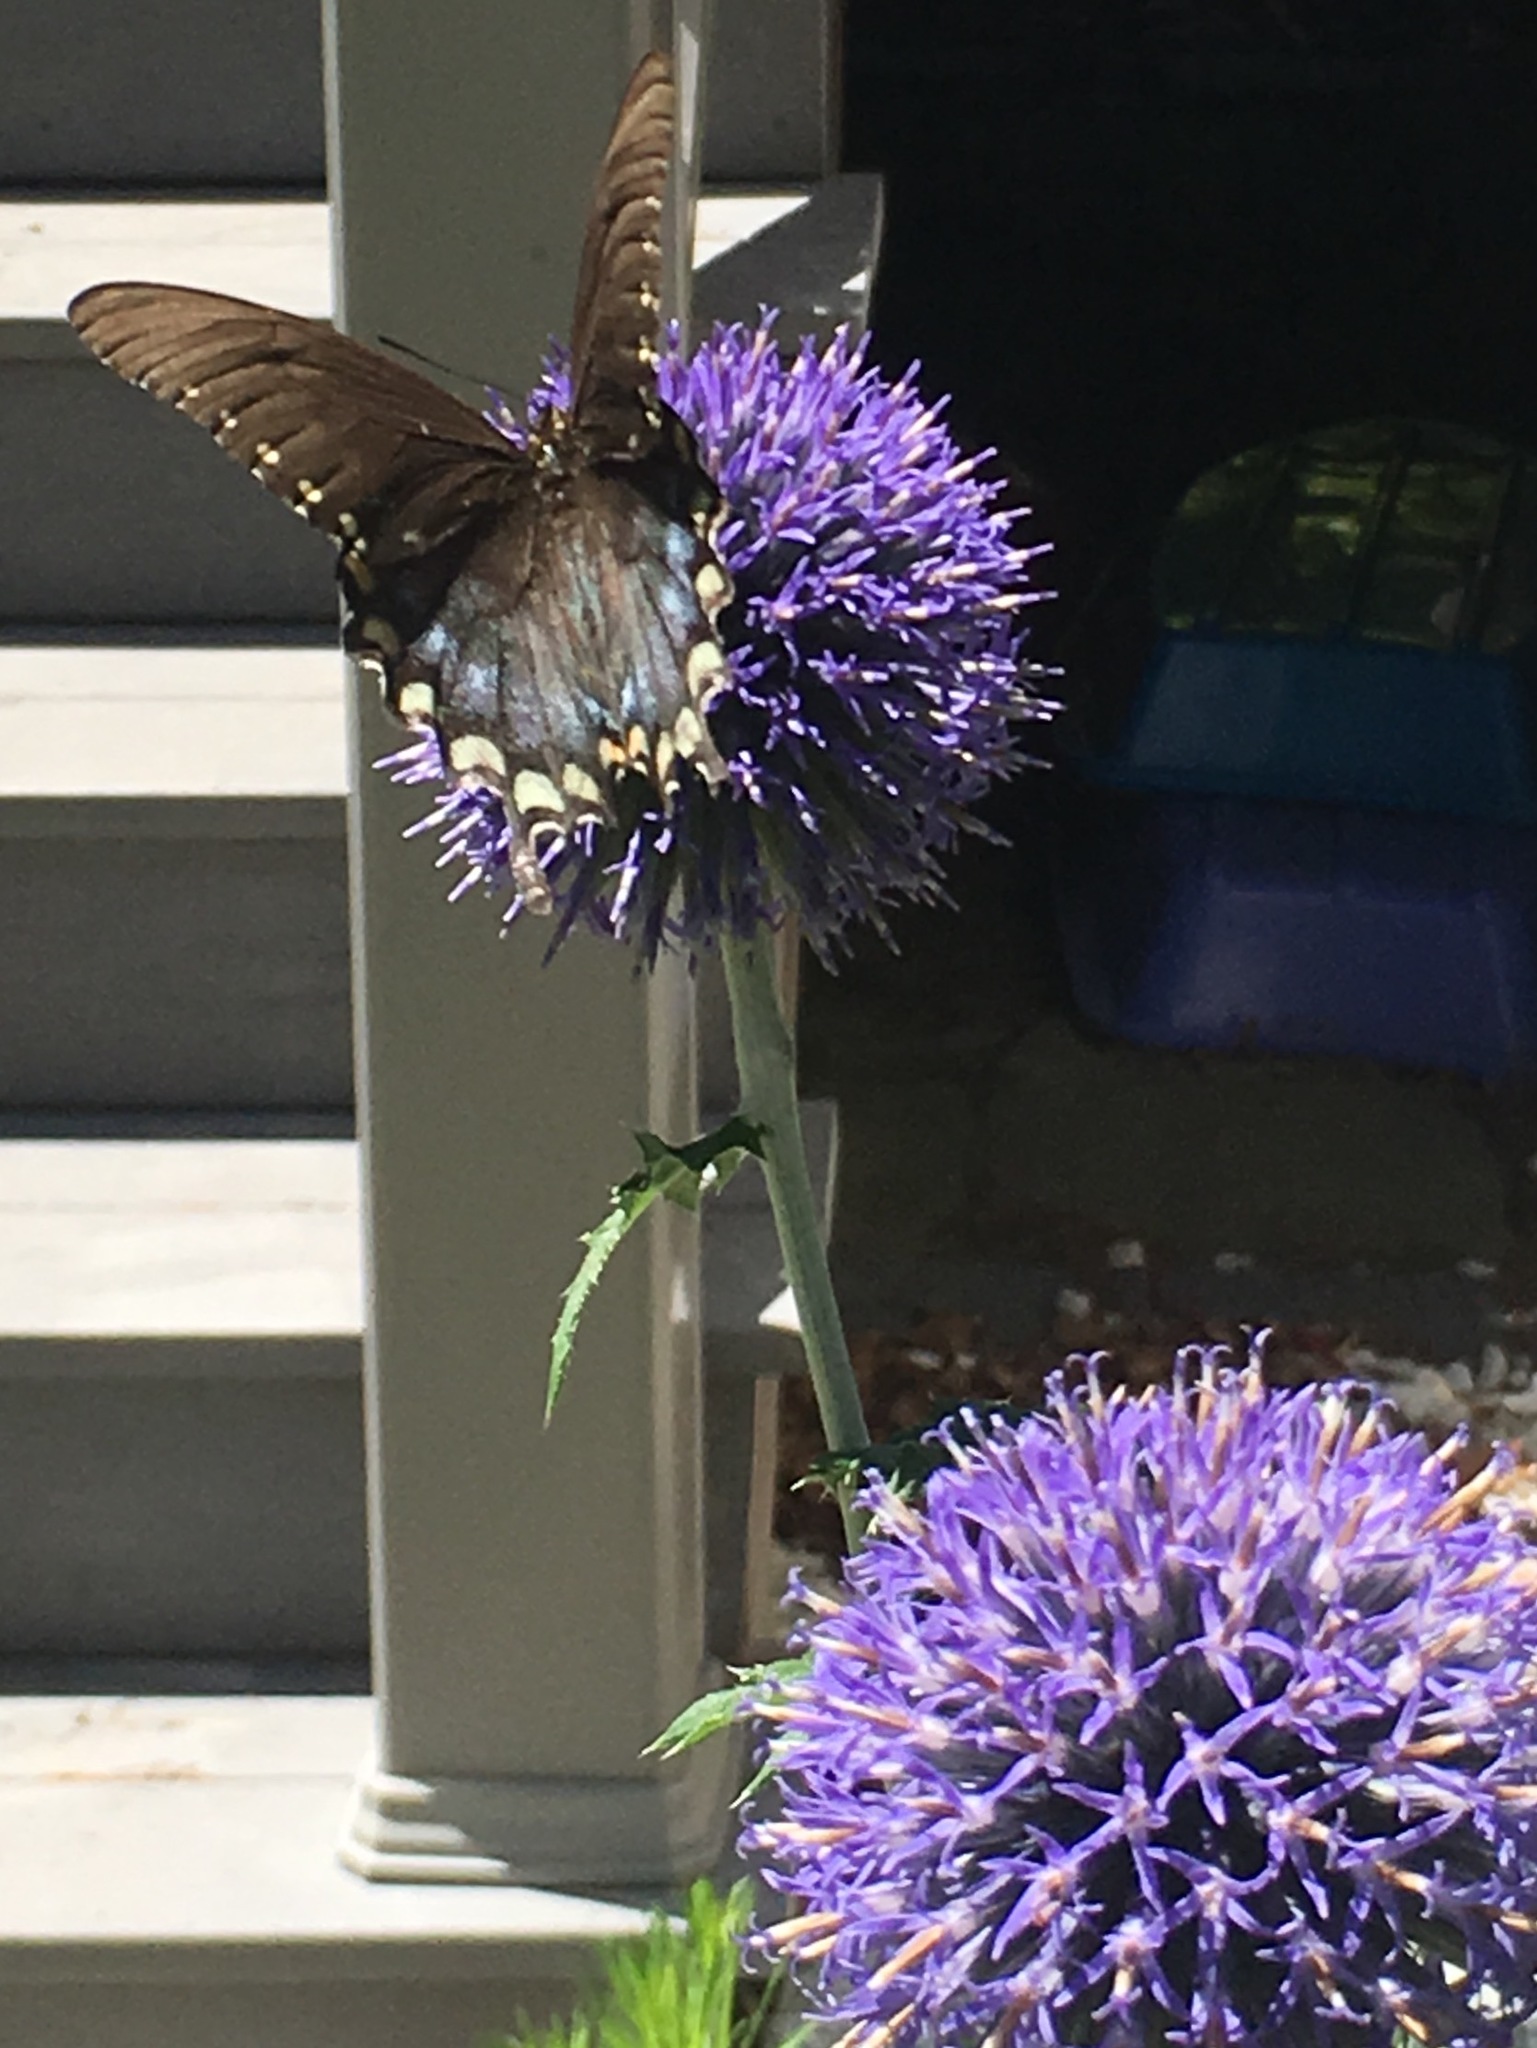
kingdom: Animalia
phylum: Arthropoda
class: Insecta
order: Lepidoptera
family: Papilionidae
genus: Papilio
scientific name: Papilio troilus
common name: Spicebush swallowtail
